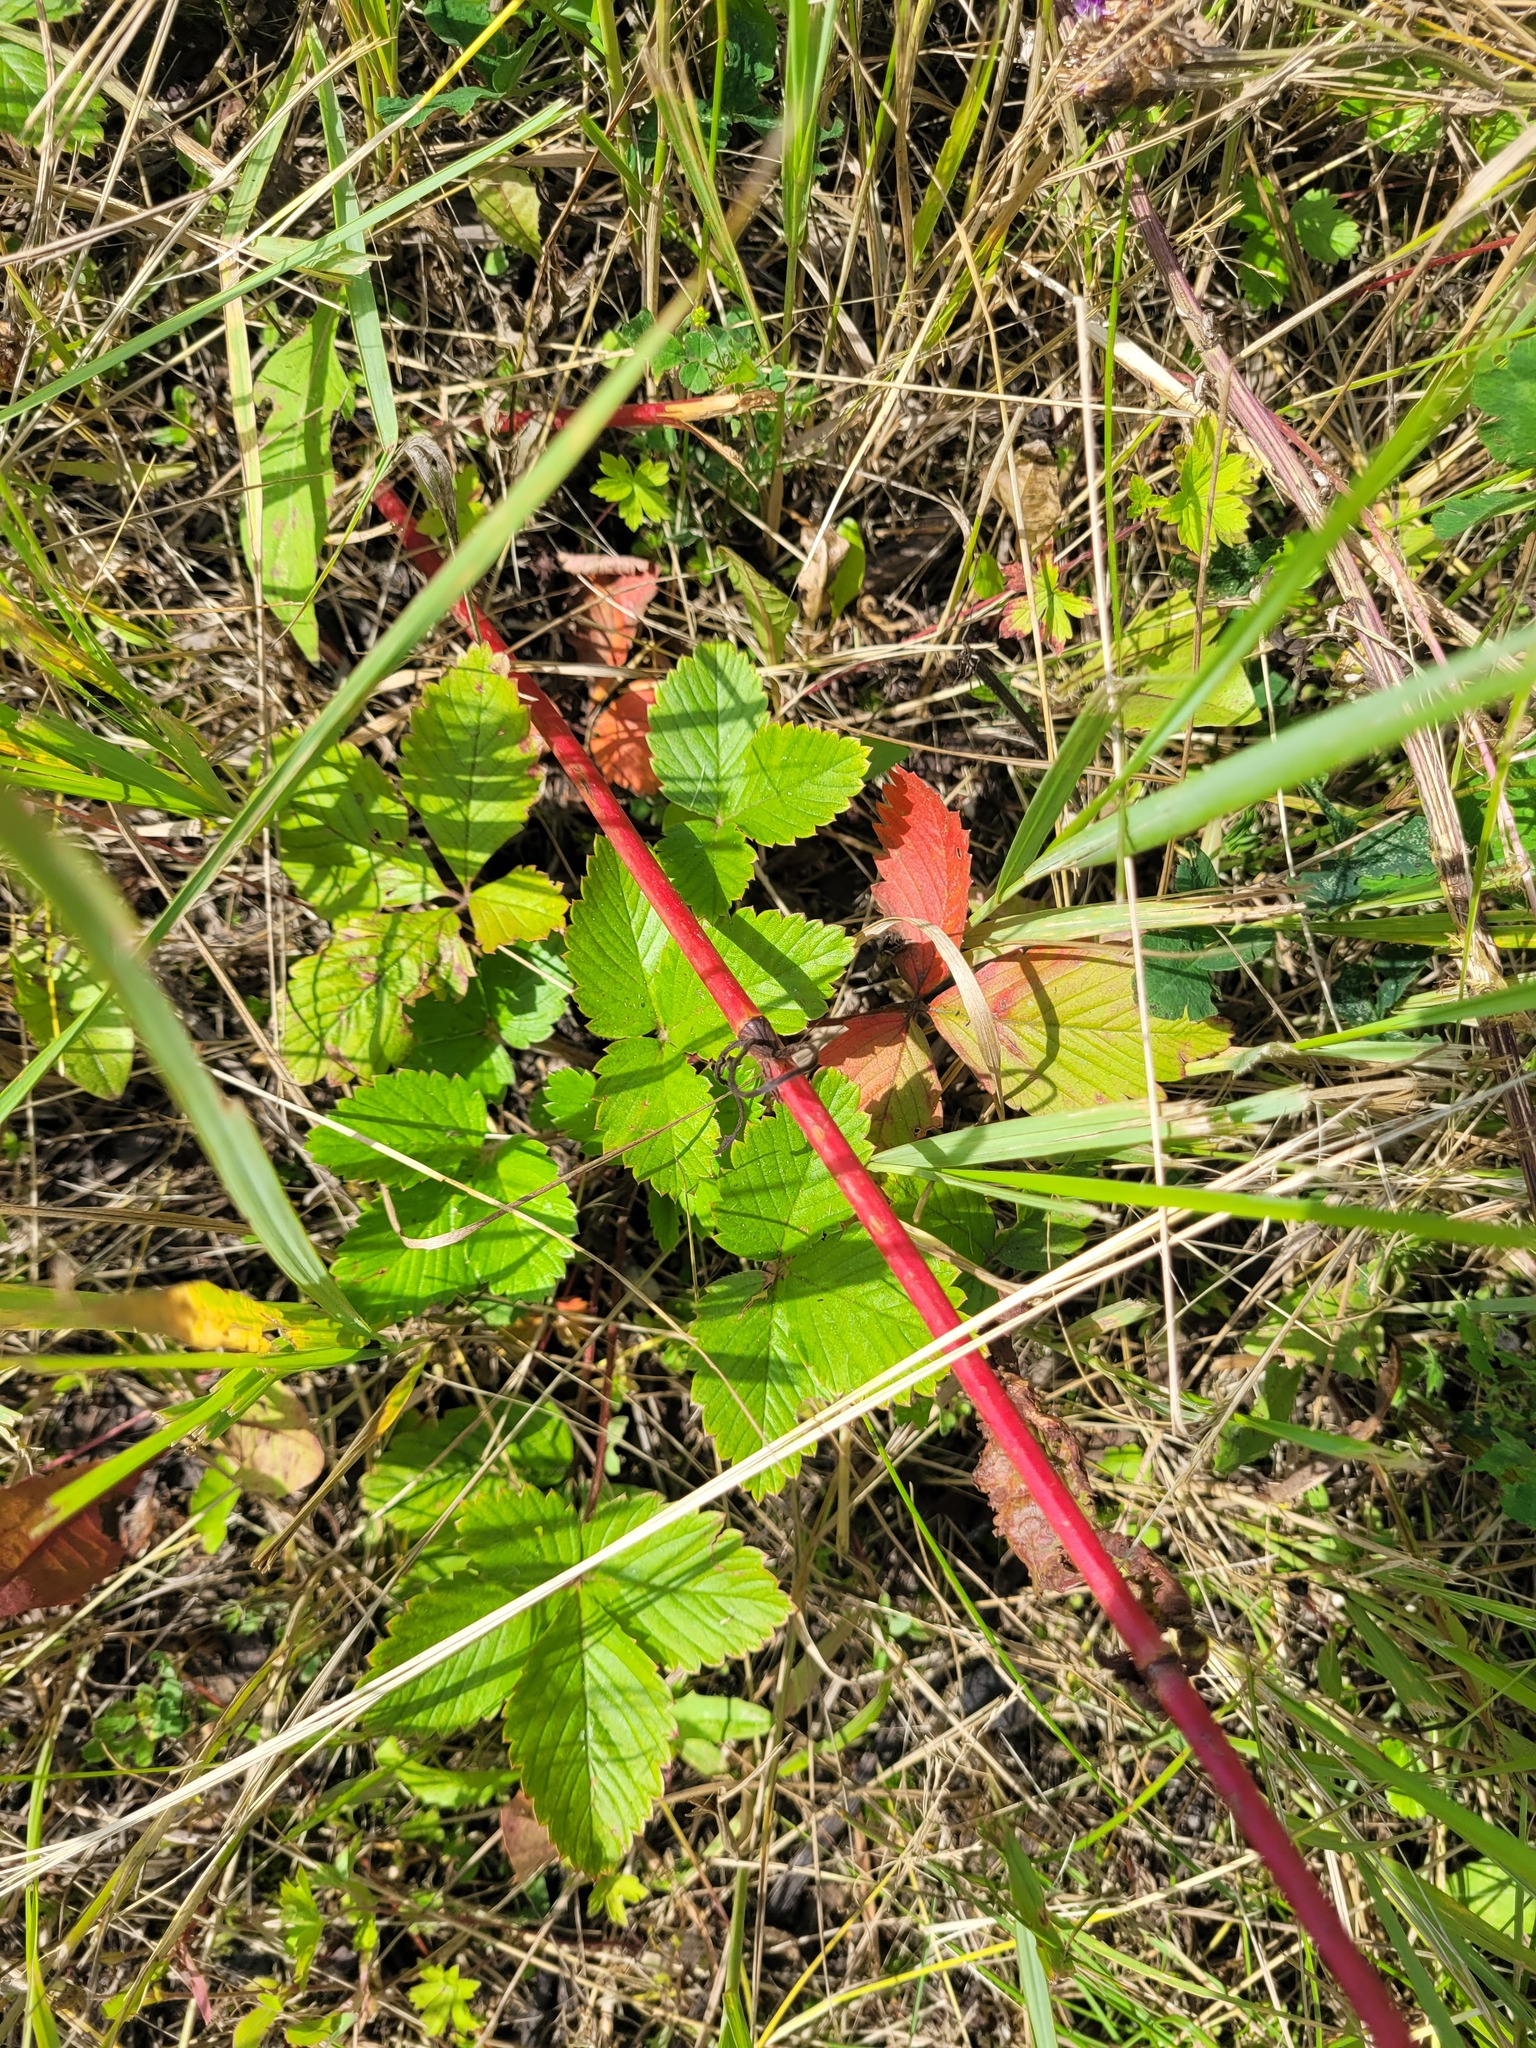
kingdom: Plantae
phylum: Tracheophyta
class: Magnoliopsida
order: Rosales
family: Rosaceae
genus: Fragaria
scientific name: Fragaria vesca
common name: Wild strawberry
